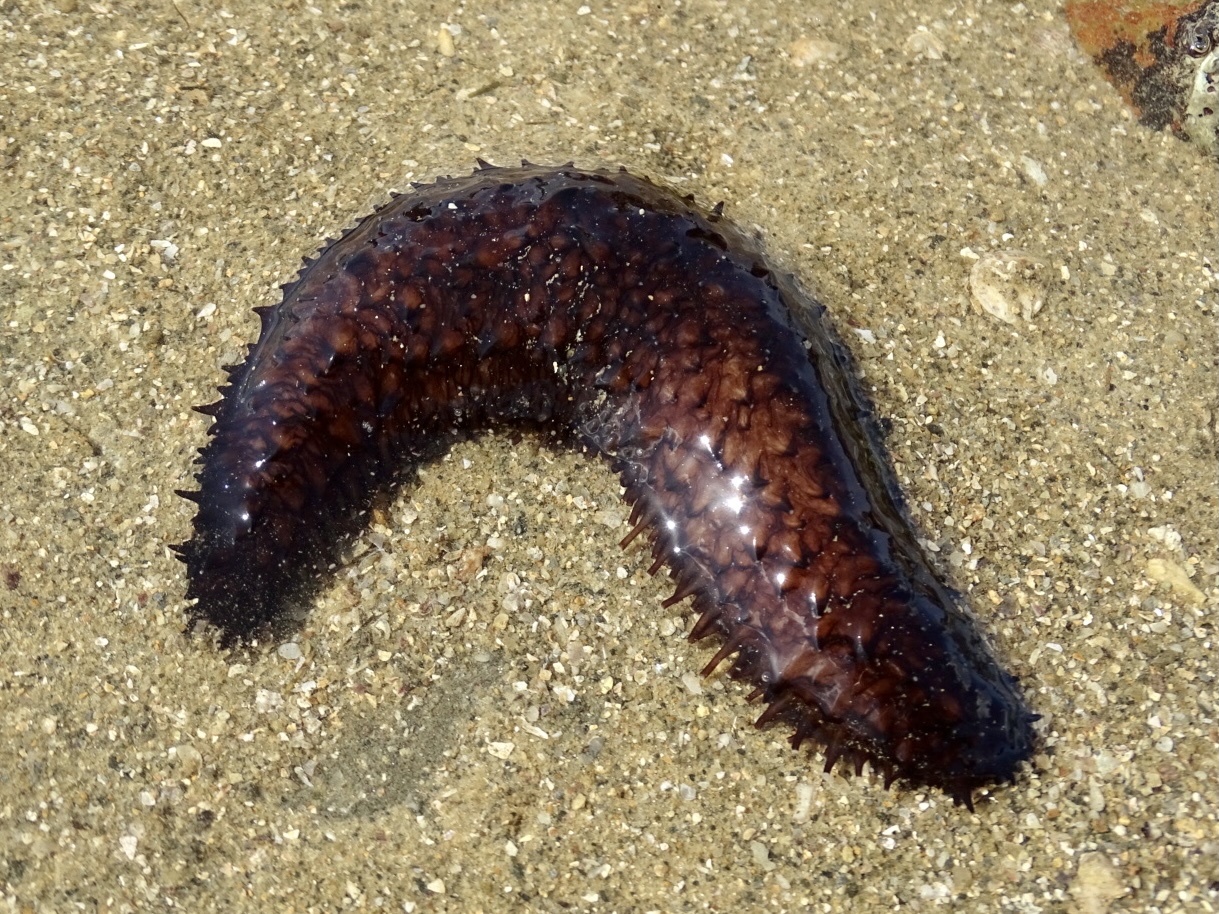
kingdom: Animalia
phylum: Echinodermata
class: Holothuroidea
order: Holothuriida
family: Holothuriidae
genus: Holothuria
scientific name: Holothuria leucospilota
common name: White thread fish
